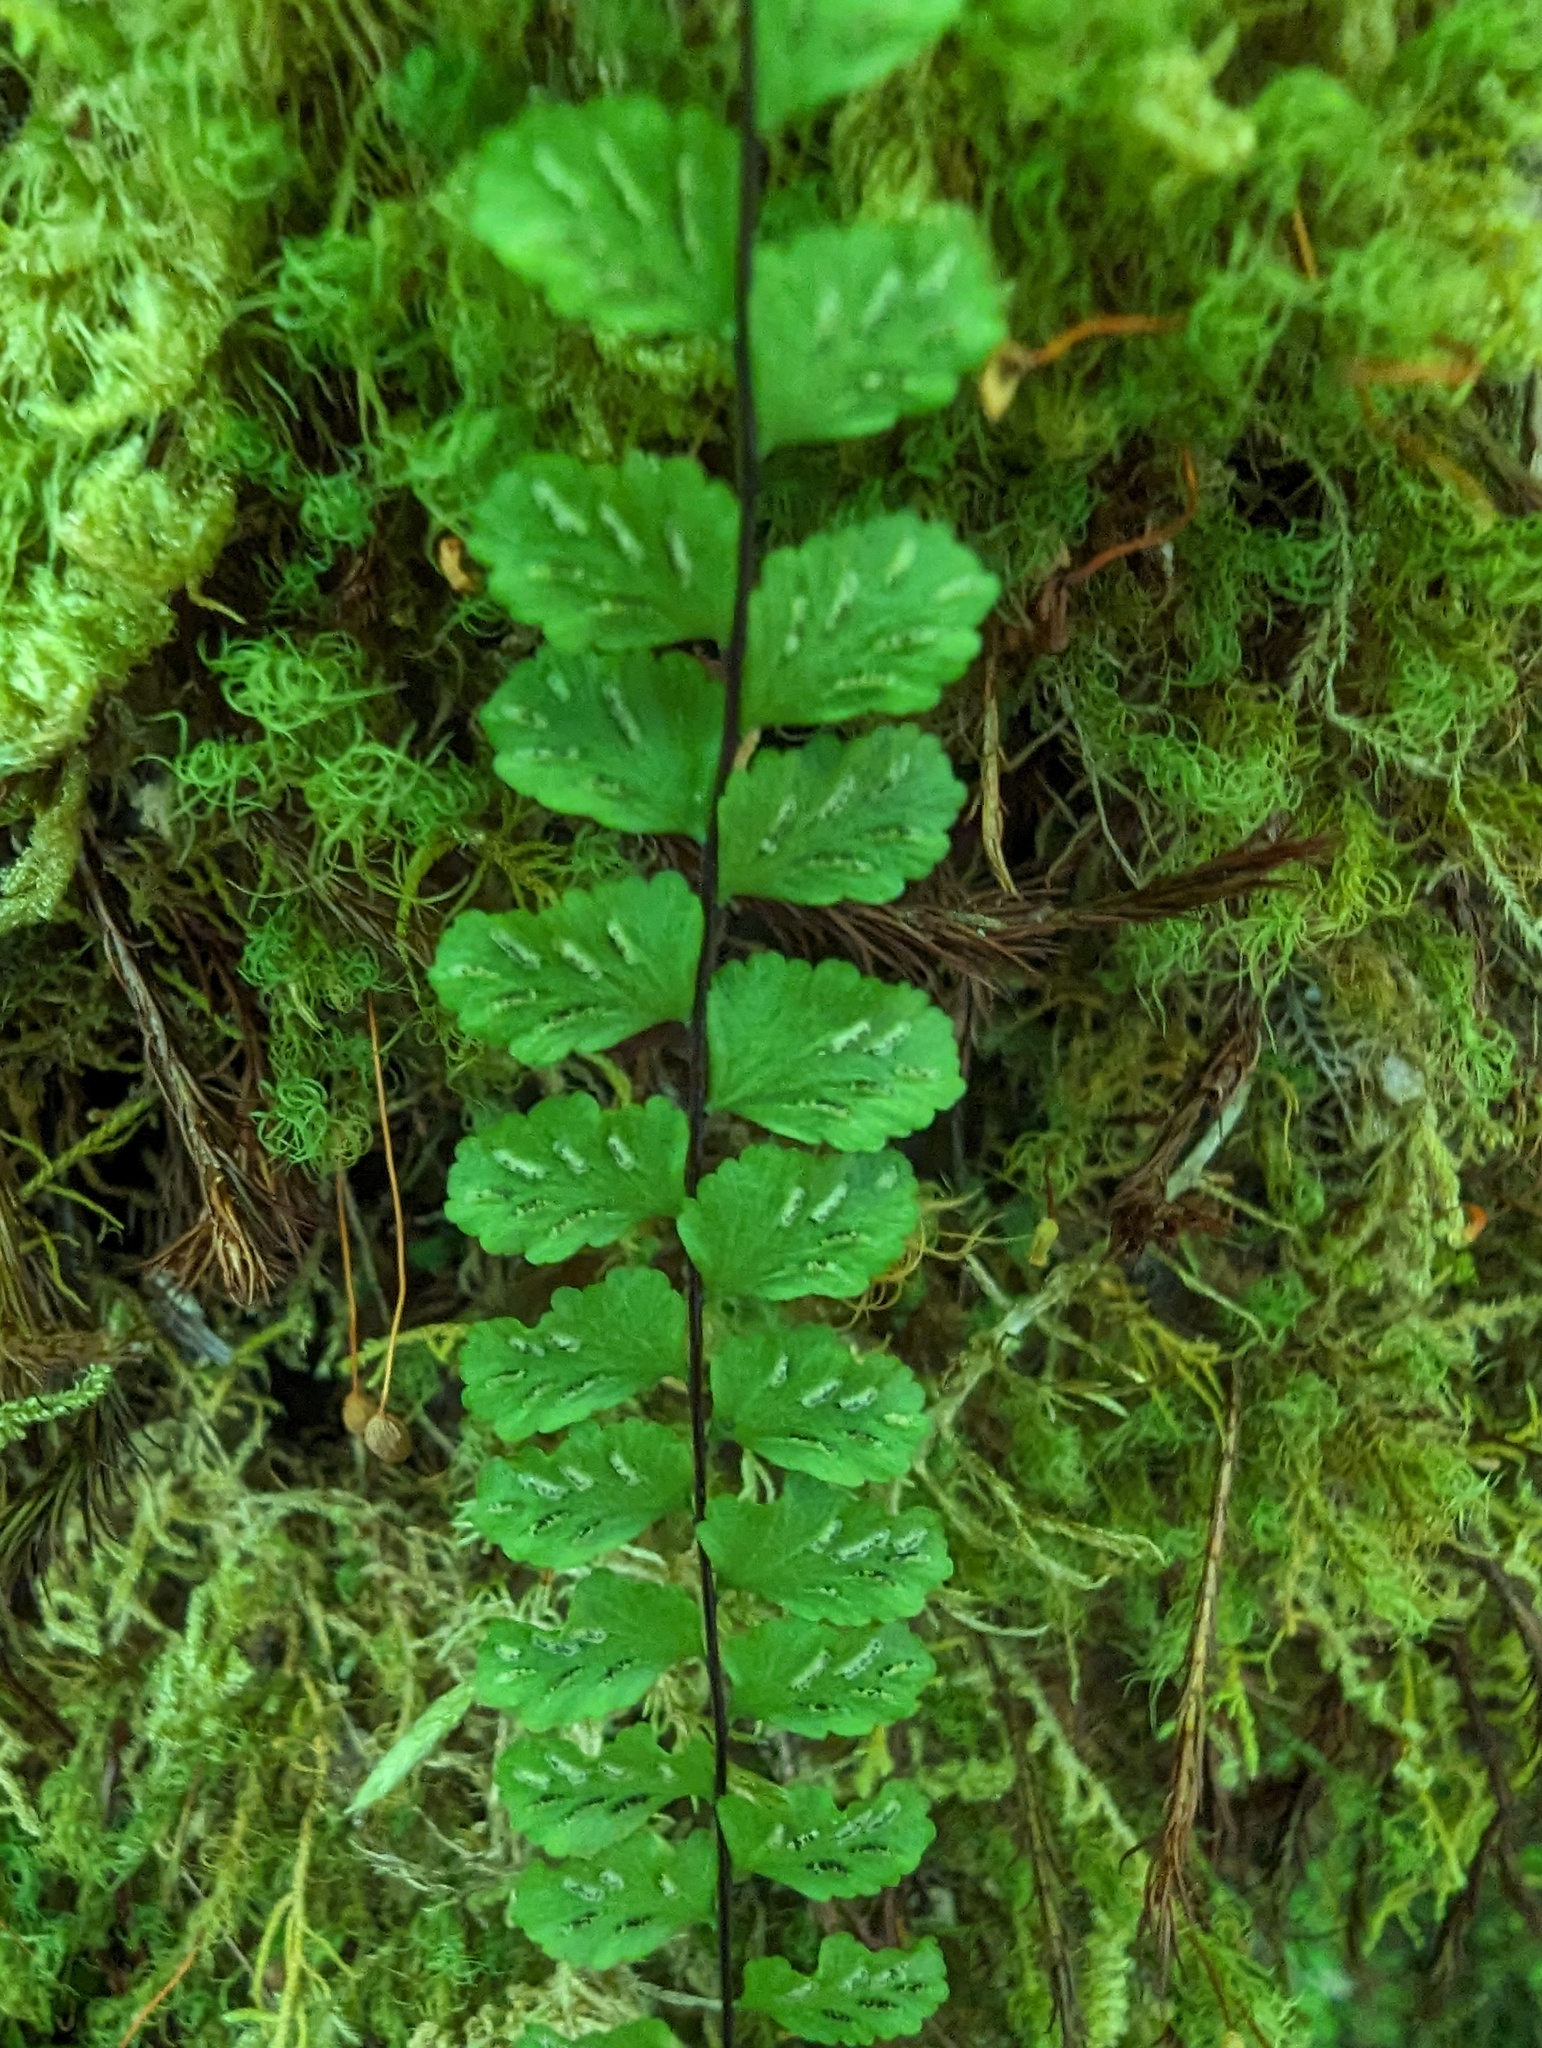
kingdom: Plantae
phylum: Tracheophyta
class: Polypodiopsida
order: Polypodiales
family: Aspleniaceae
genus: Asplenium
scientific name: Asplenium trichomanes
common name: Maidenhair spleenwort
